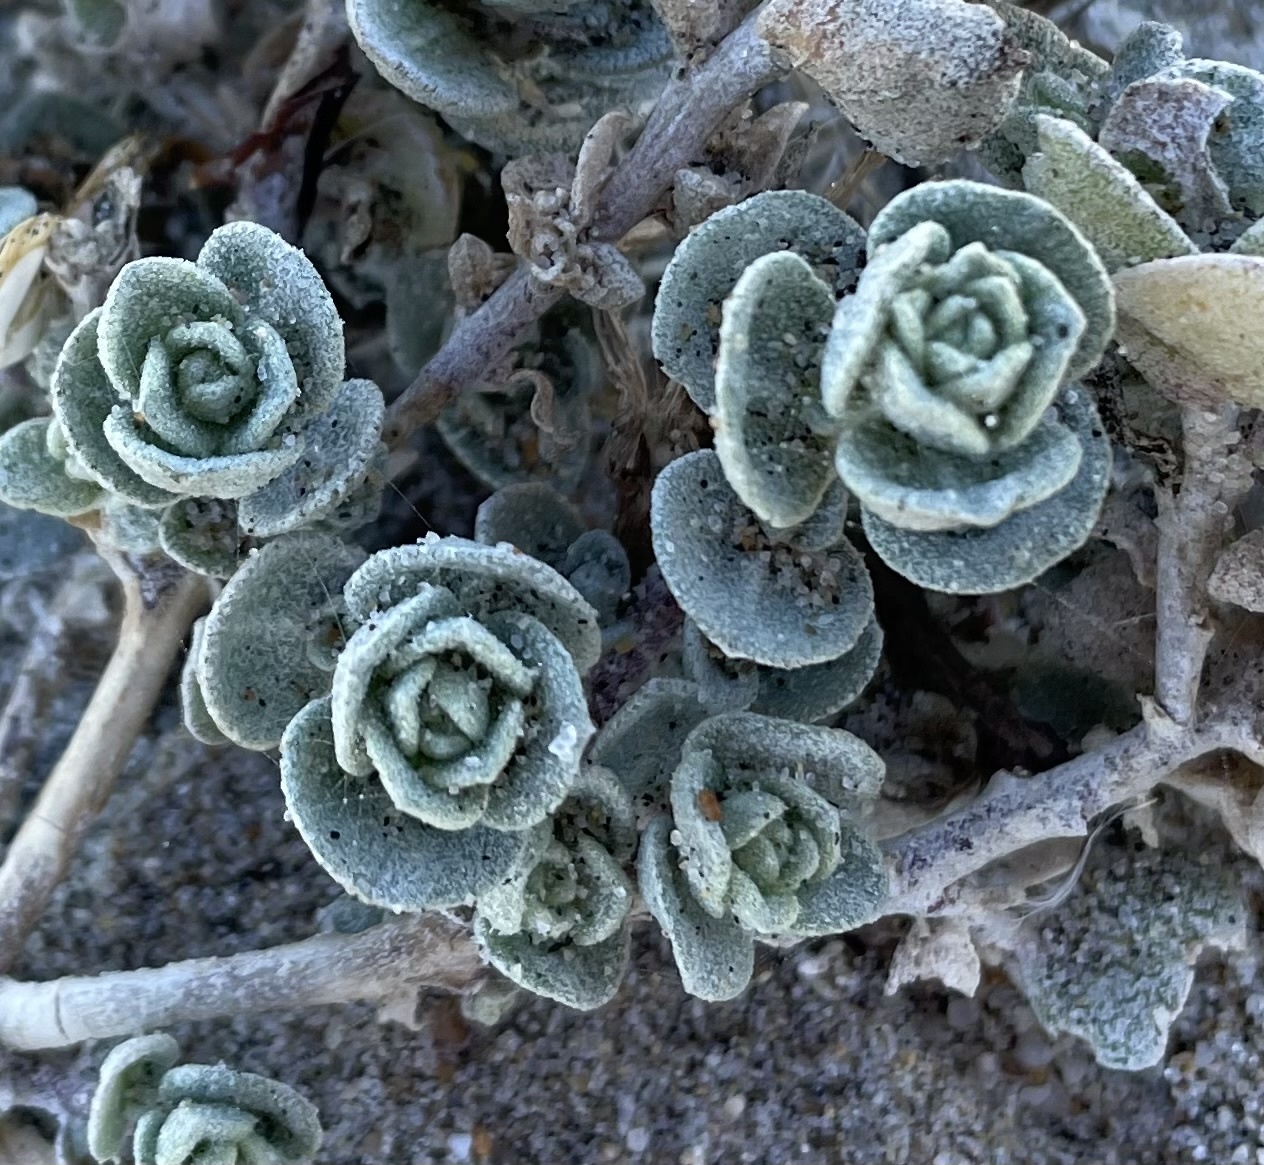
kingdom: Plantae
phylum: Tracheophyta
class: Magnoliopsida
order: Caryophyllales
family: Amaranthaceae
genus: Atriplex
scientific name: Atriplex leucophylla
